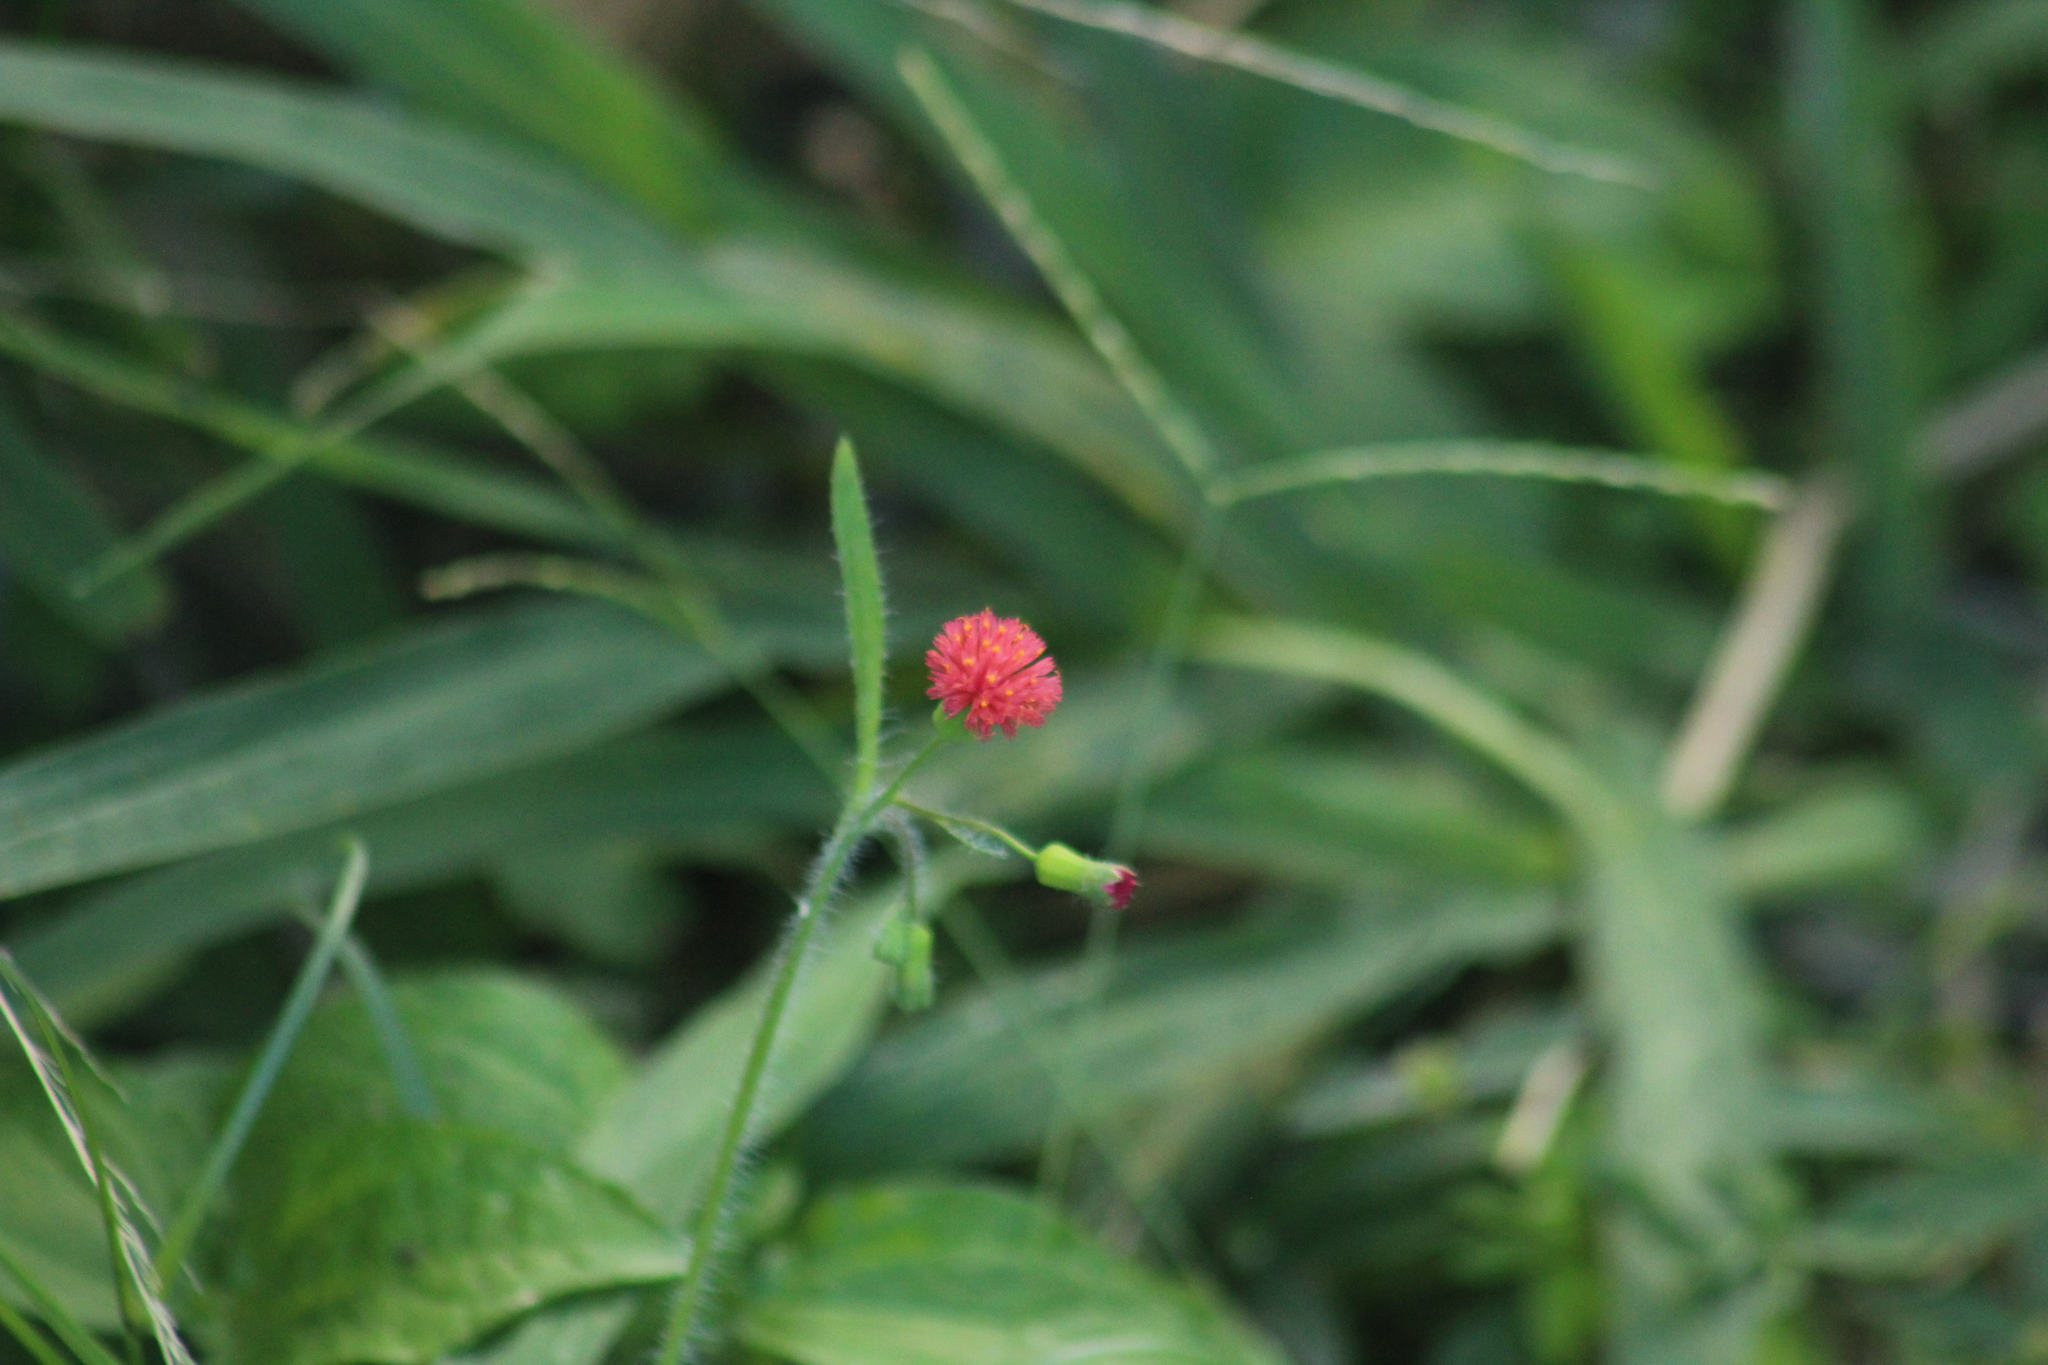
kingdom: Plantae
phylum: Tracheophyta
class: Magnoliopsida
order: Asterales
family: Asteraceae
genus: Emilia
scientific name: Emilia fosbergii
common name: Florida tasselflower
